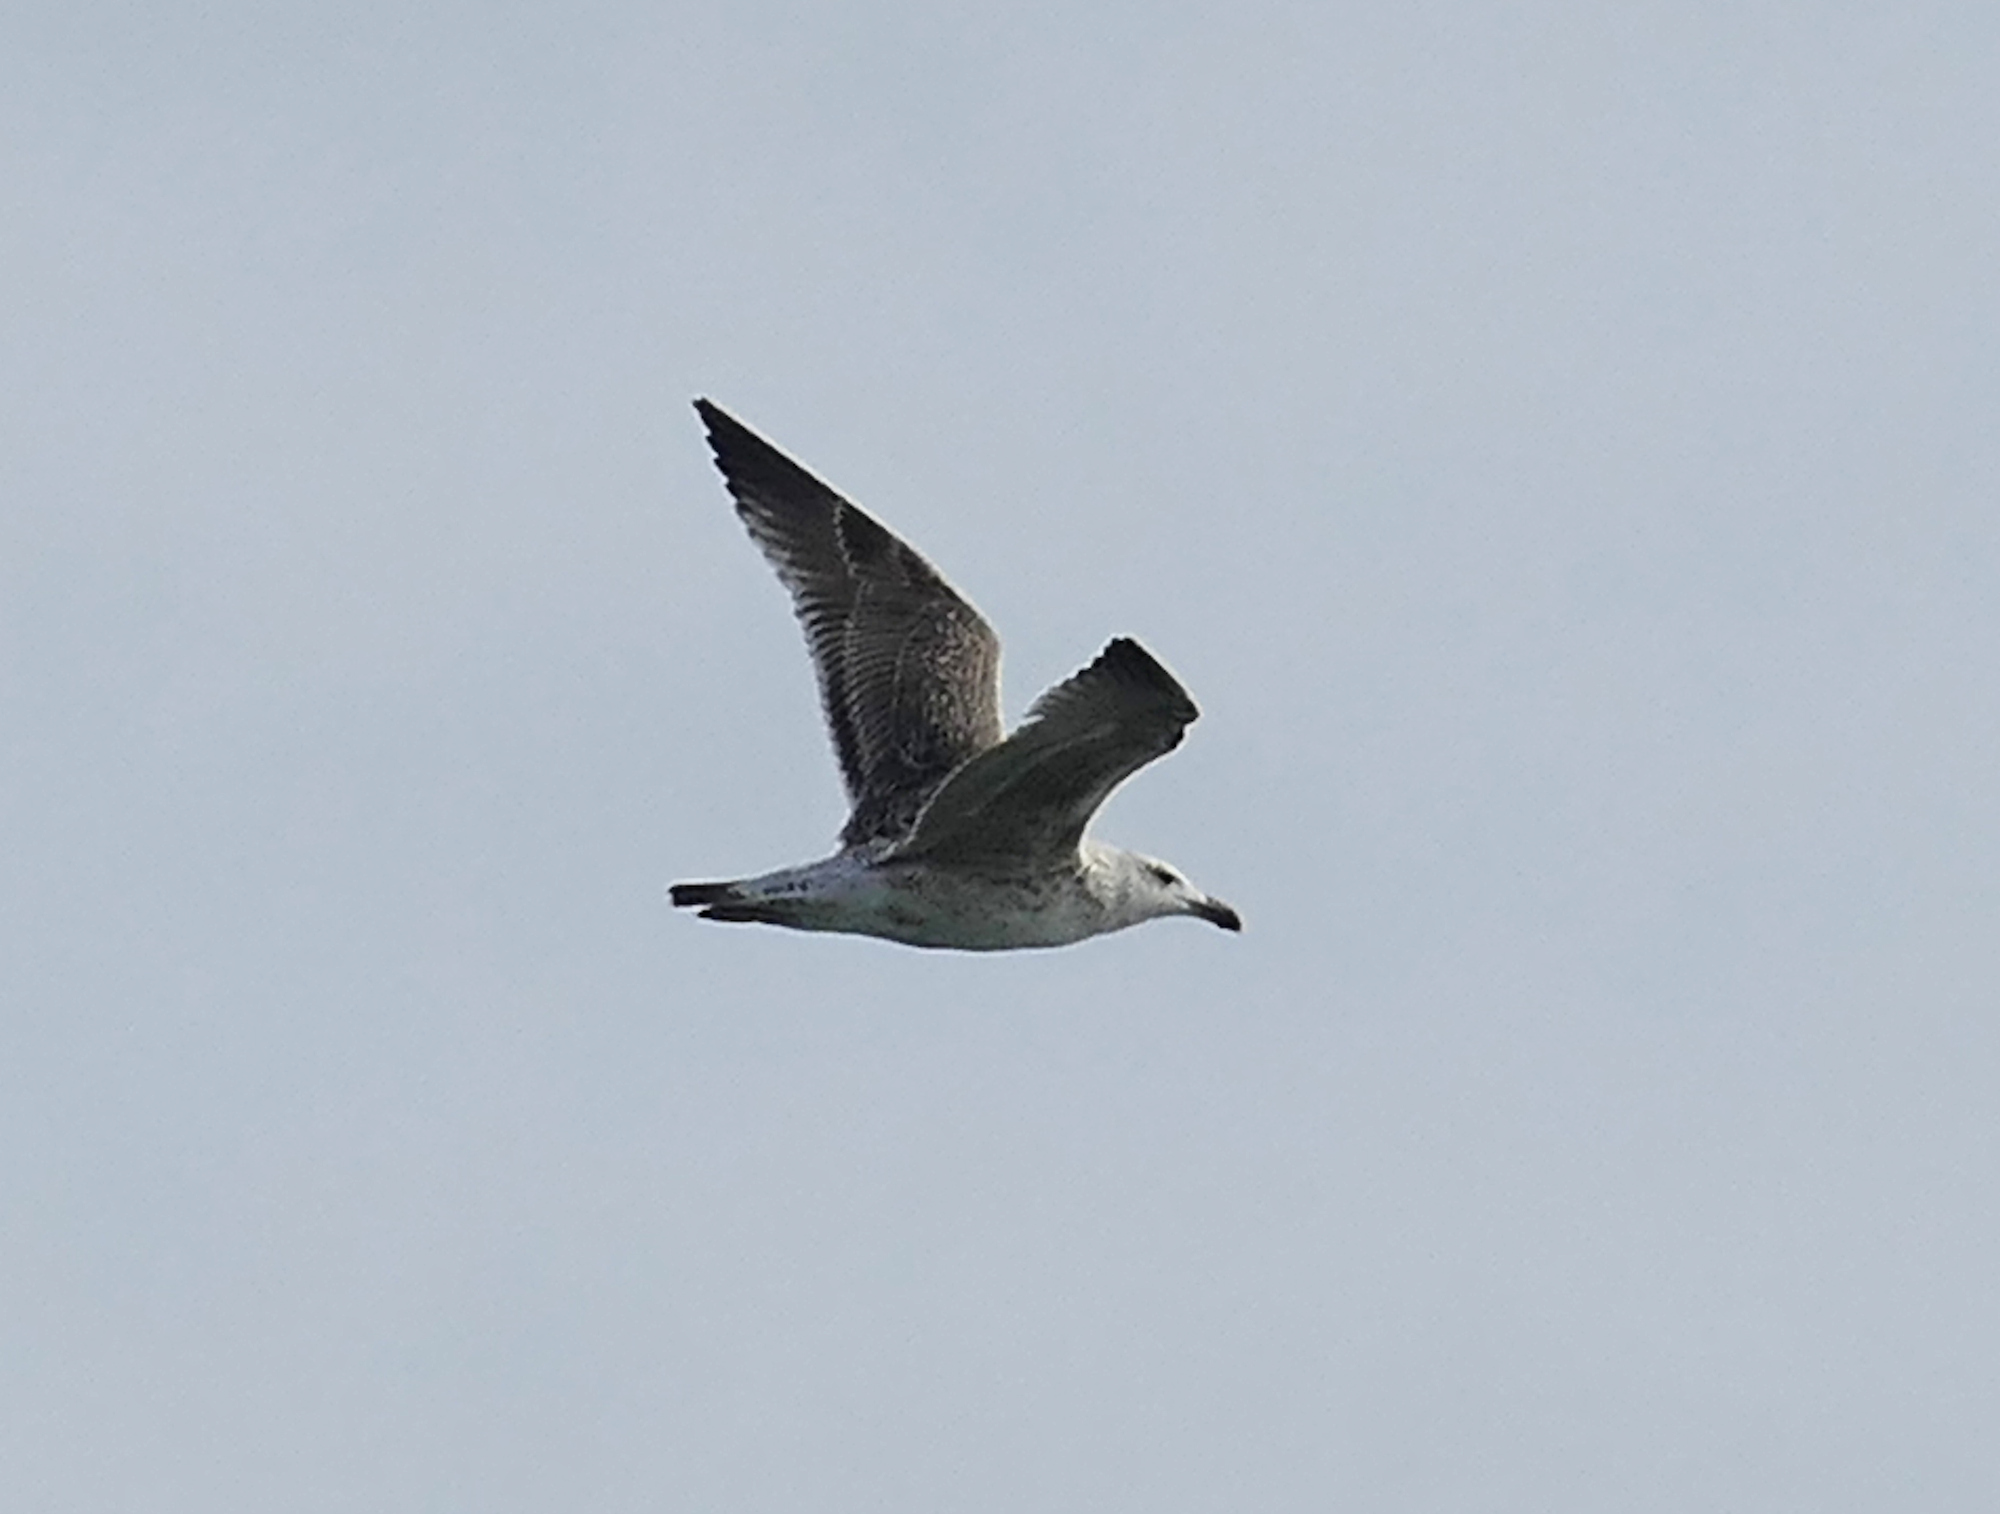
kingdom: Animalia
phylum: Chordata
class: Aves
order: Charadriiformes
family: Laridae
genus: Larus
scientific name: Larus marinus
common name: Great black-backed gull
